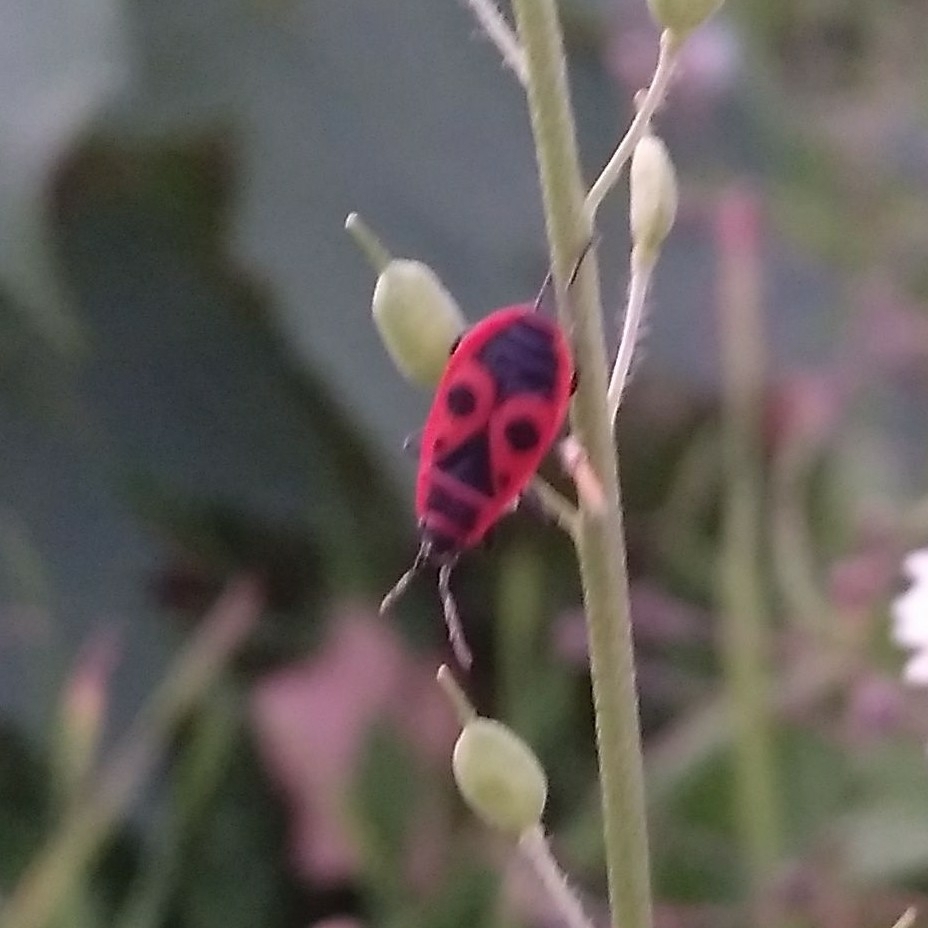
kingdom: Animalia
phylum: Arthropoda
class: Insecta
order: Hemiptera
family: Pyrrhocoridae
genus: Pyrrhocoris
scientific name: Pyrrhocoris apterus
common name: Firebug
